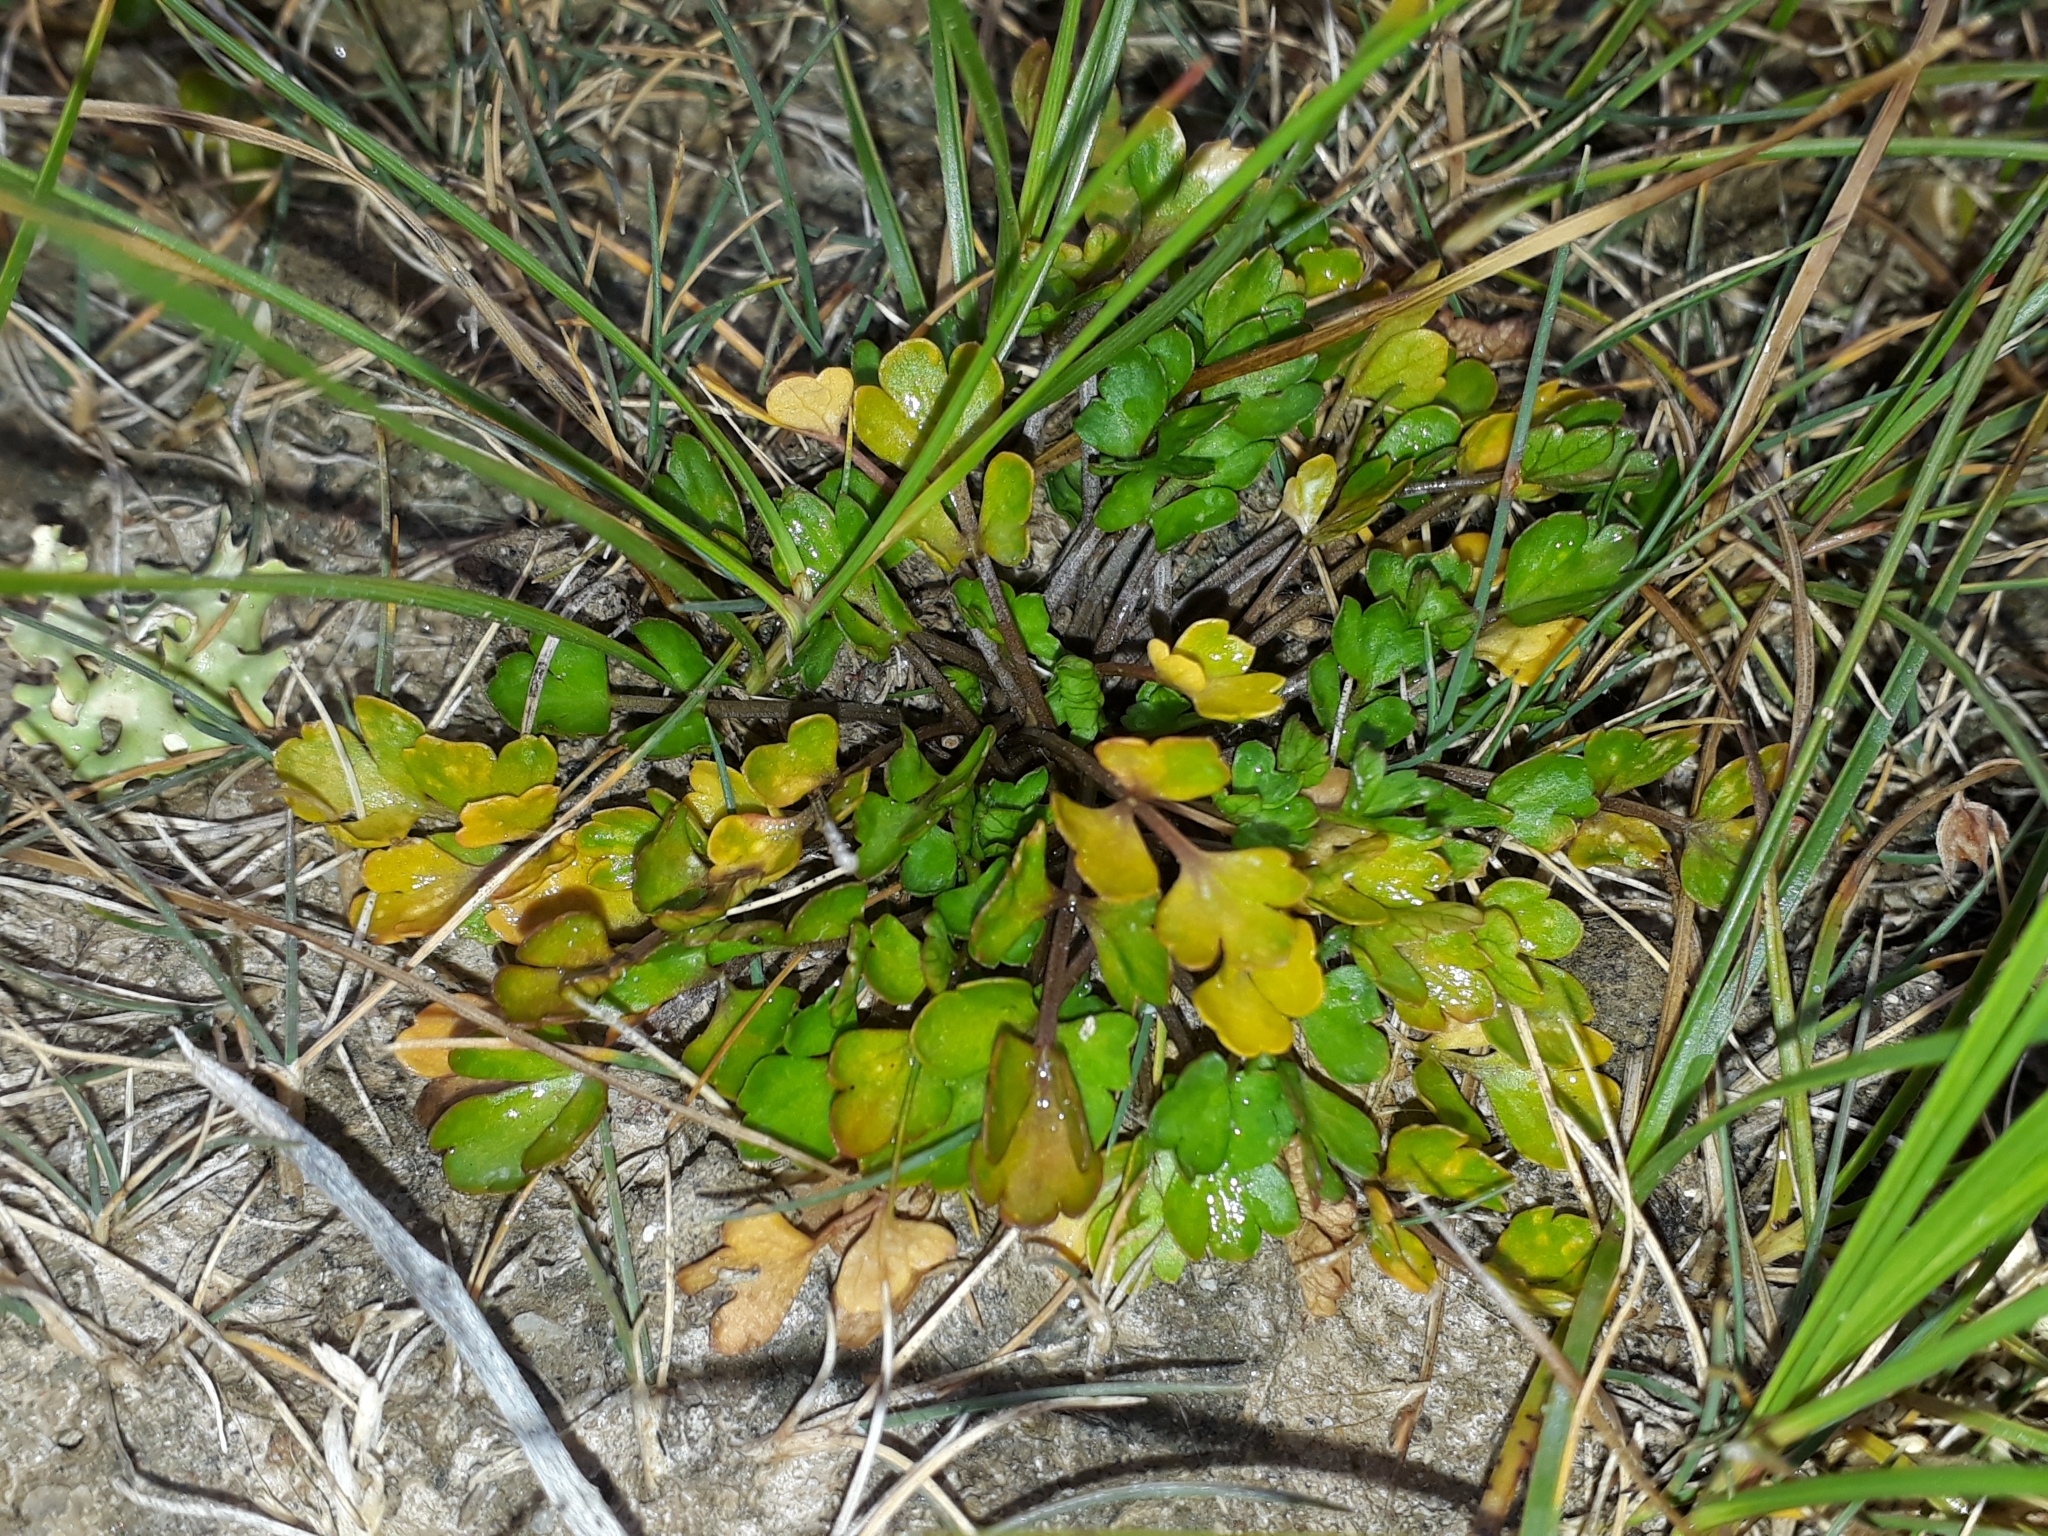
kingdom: Plantae
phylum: Tracheophyta
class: Magnoliopsida
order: Apiales
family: Apiaceae
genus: Apium
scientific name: Apium prostratum
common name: Prostrate marshwort
